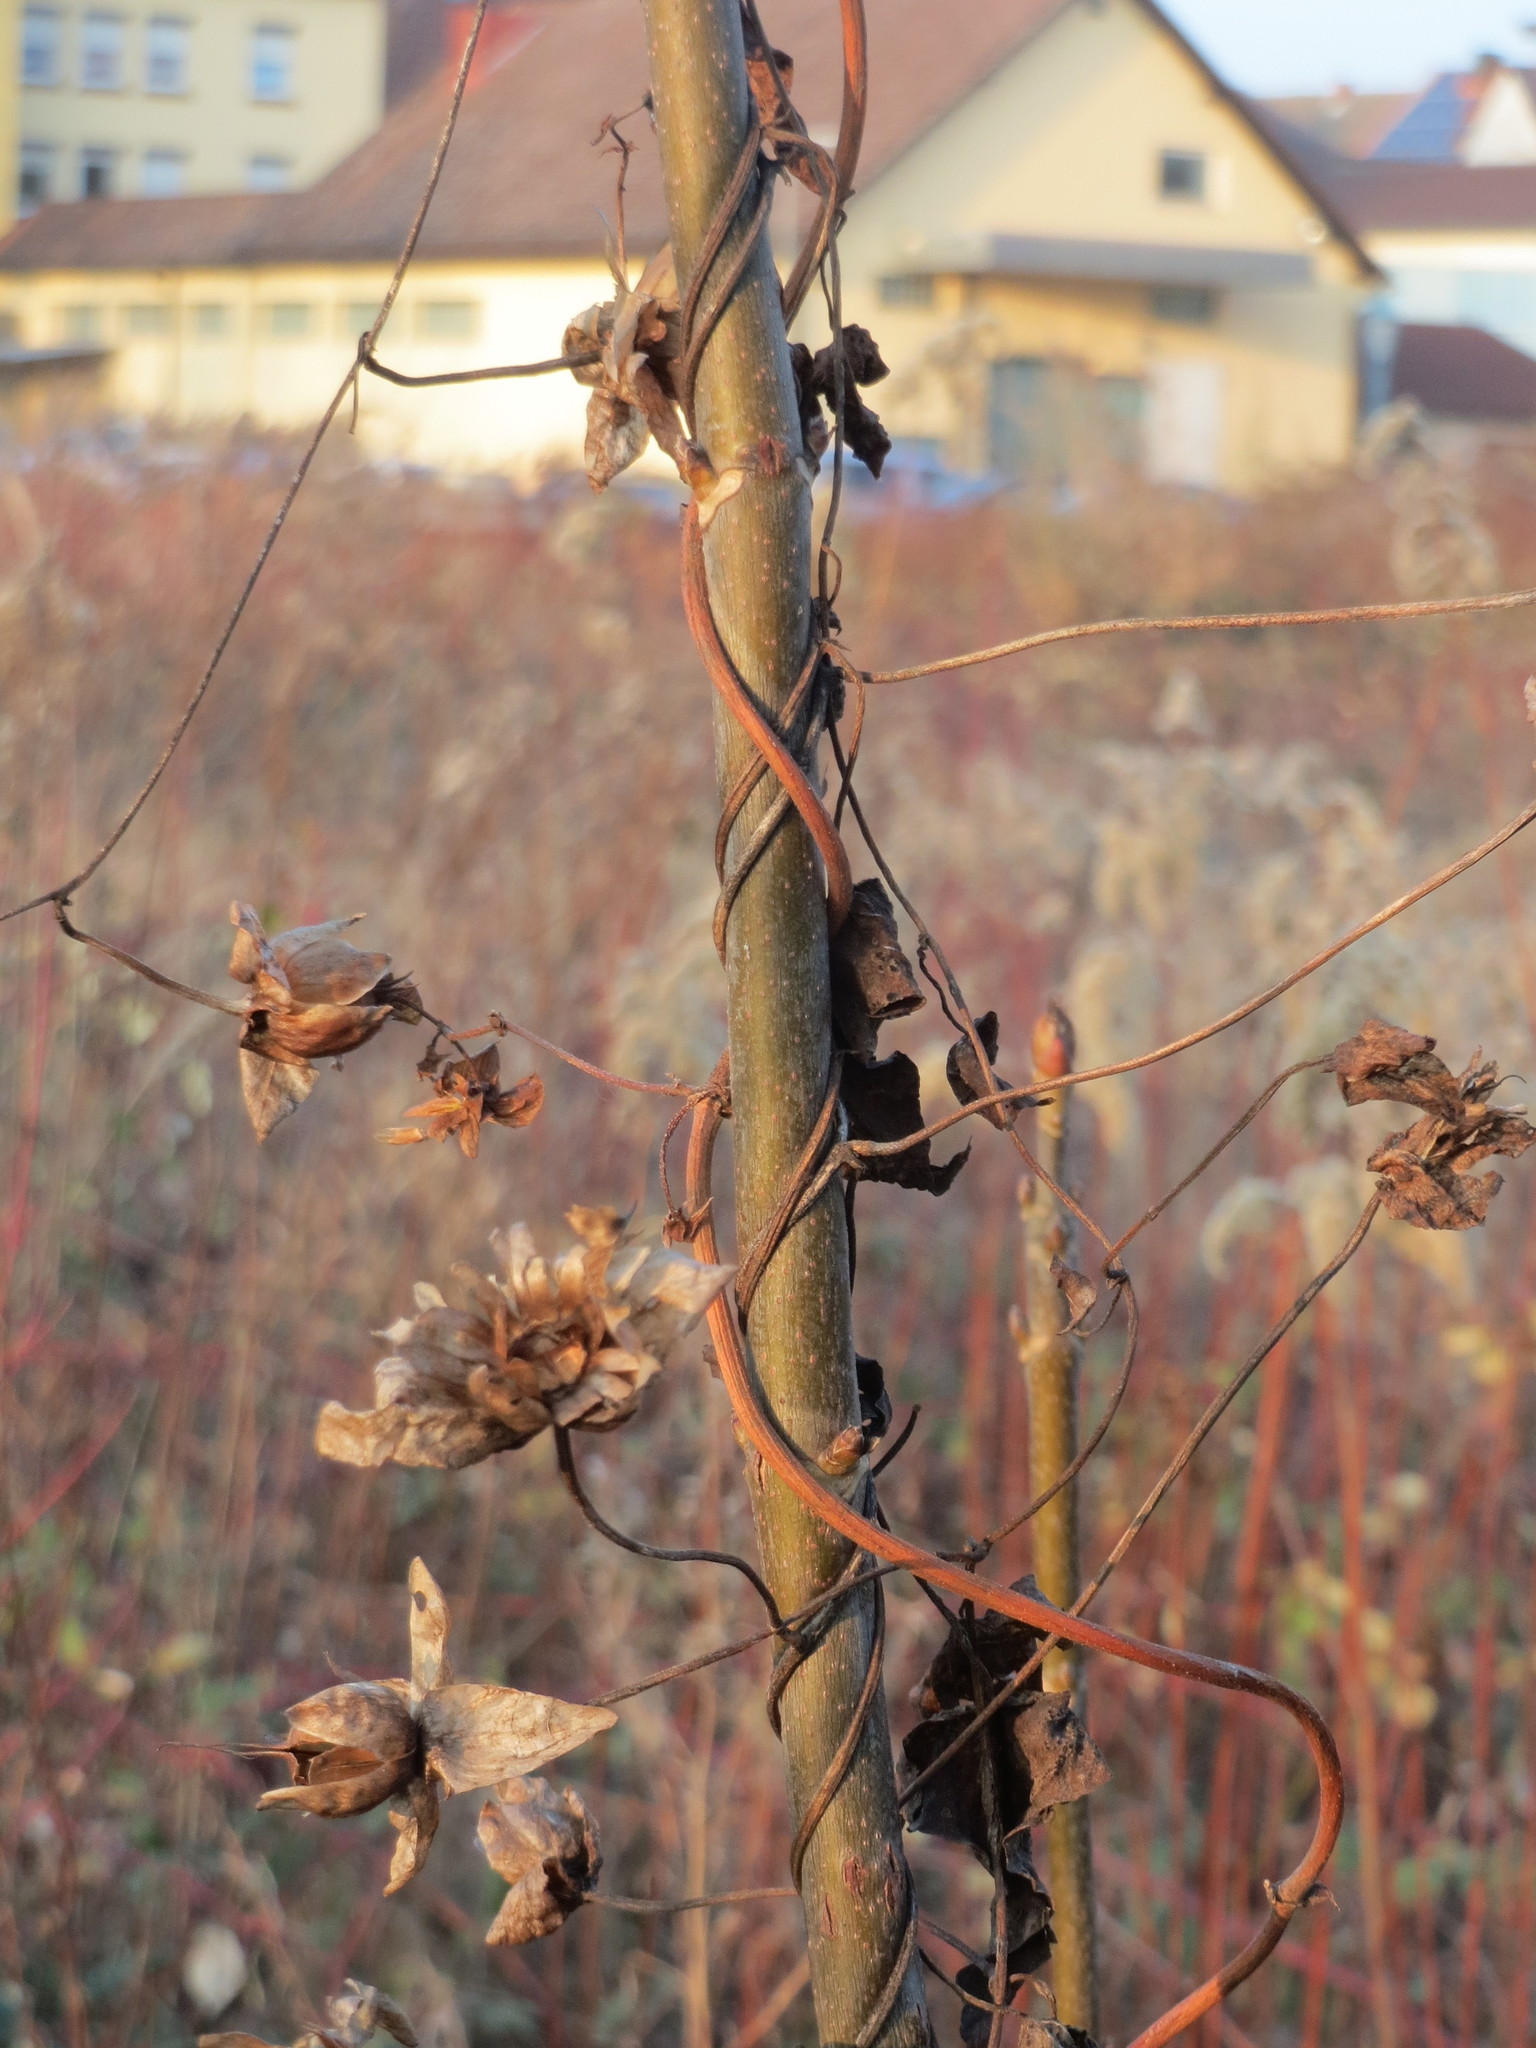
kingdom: Plantae
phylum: Tracheophyta
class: Magnoliopsida
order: Solanales
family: Convolvulaceae
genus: Calystegia
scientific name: Calystegia sepium
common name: Hedge bindweed
